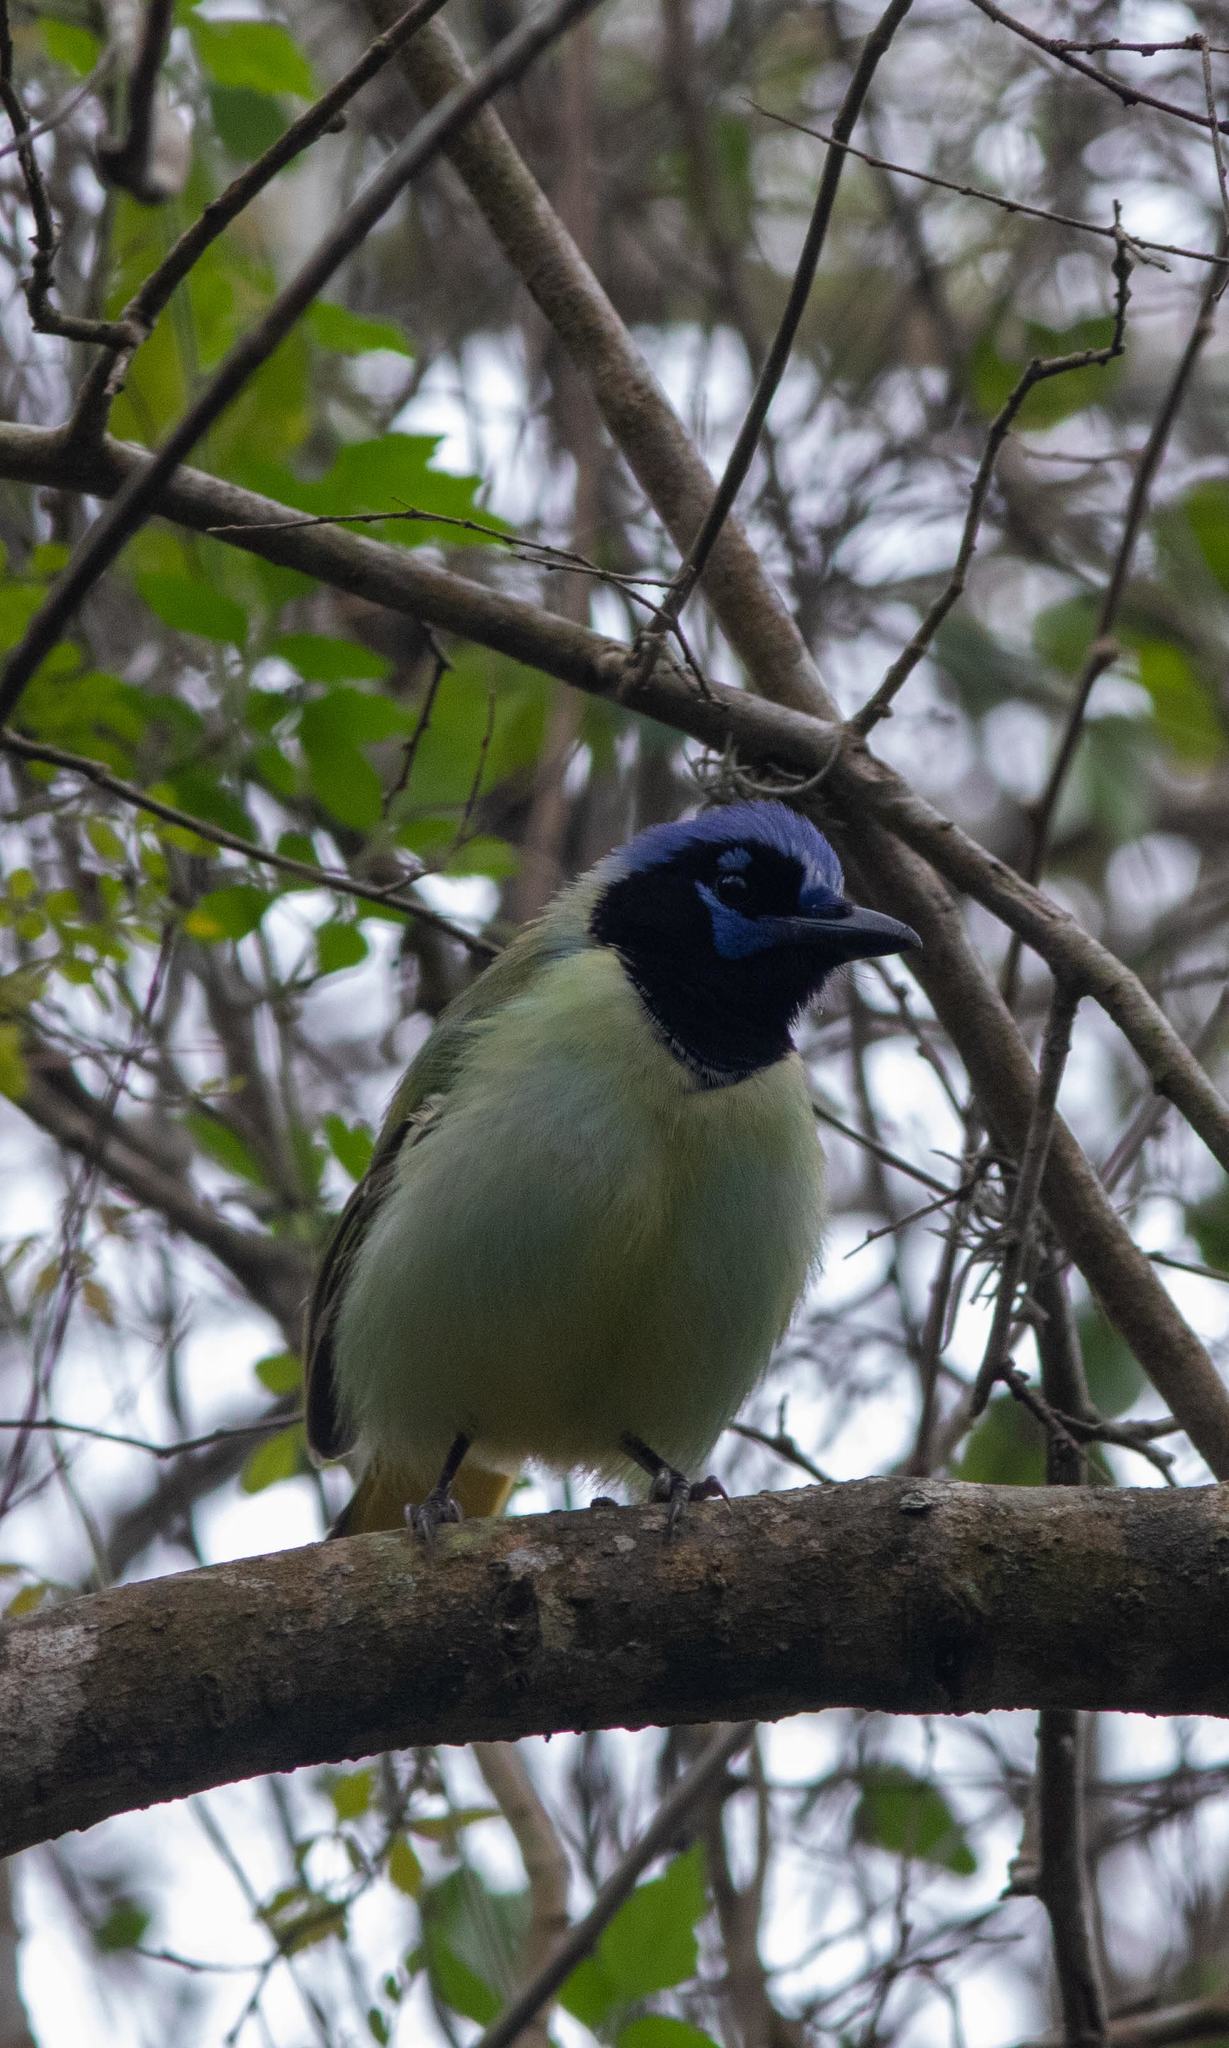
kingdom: Animalia
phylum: Chordata
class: Aves
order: Passeriformes
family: Corvidae
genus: Cyanocorax
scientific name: Cyanocorax yncas
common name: Green jay
